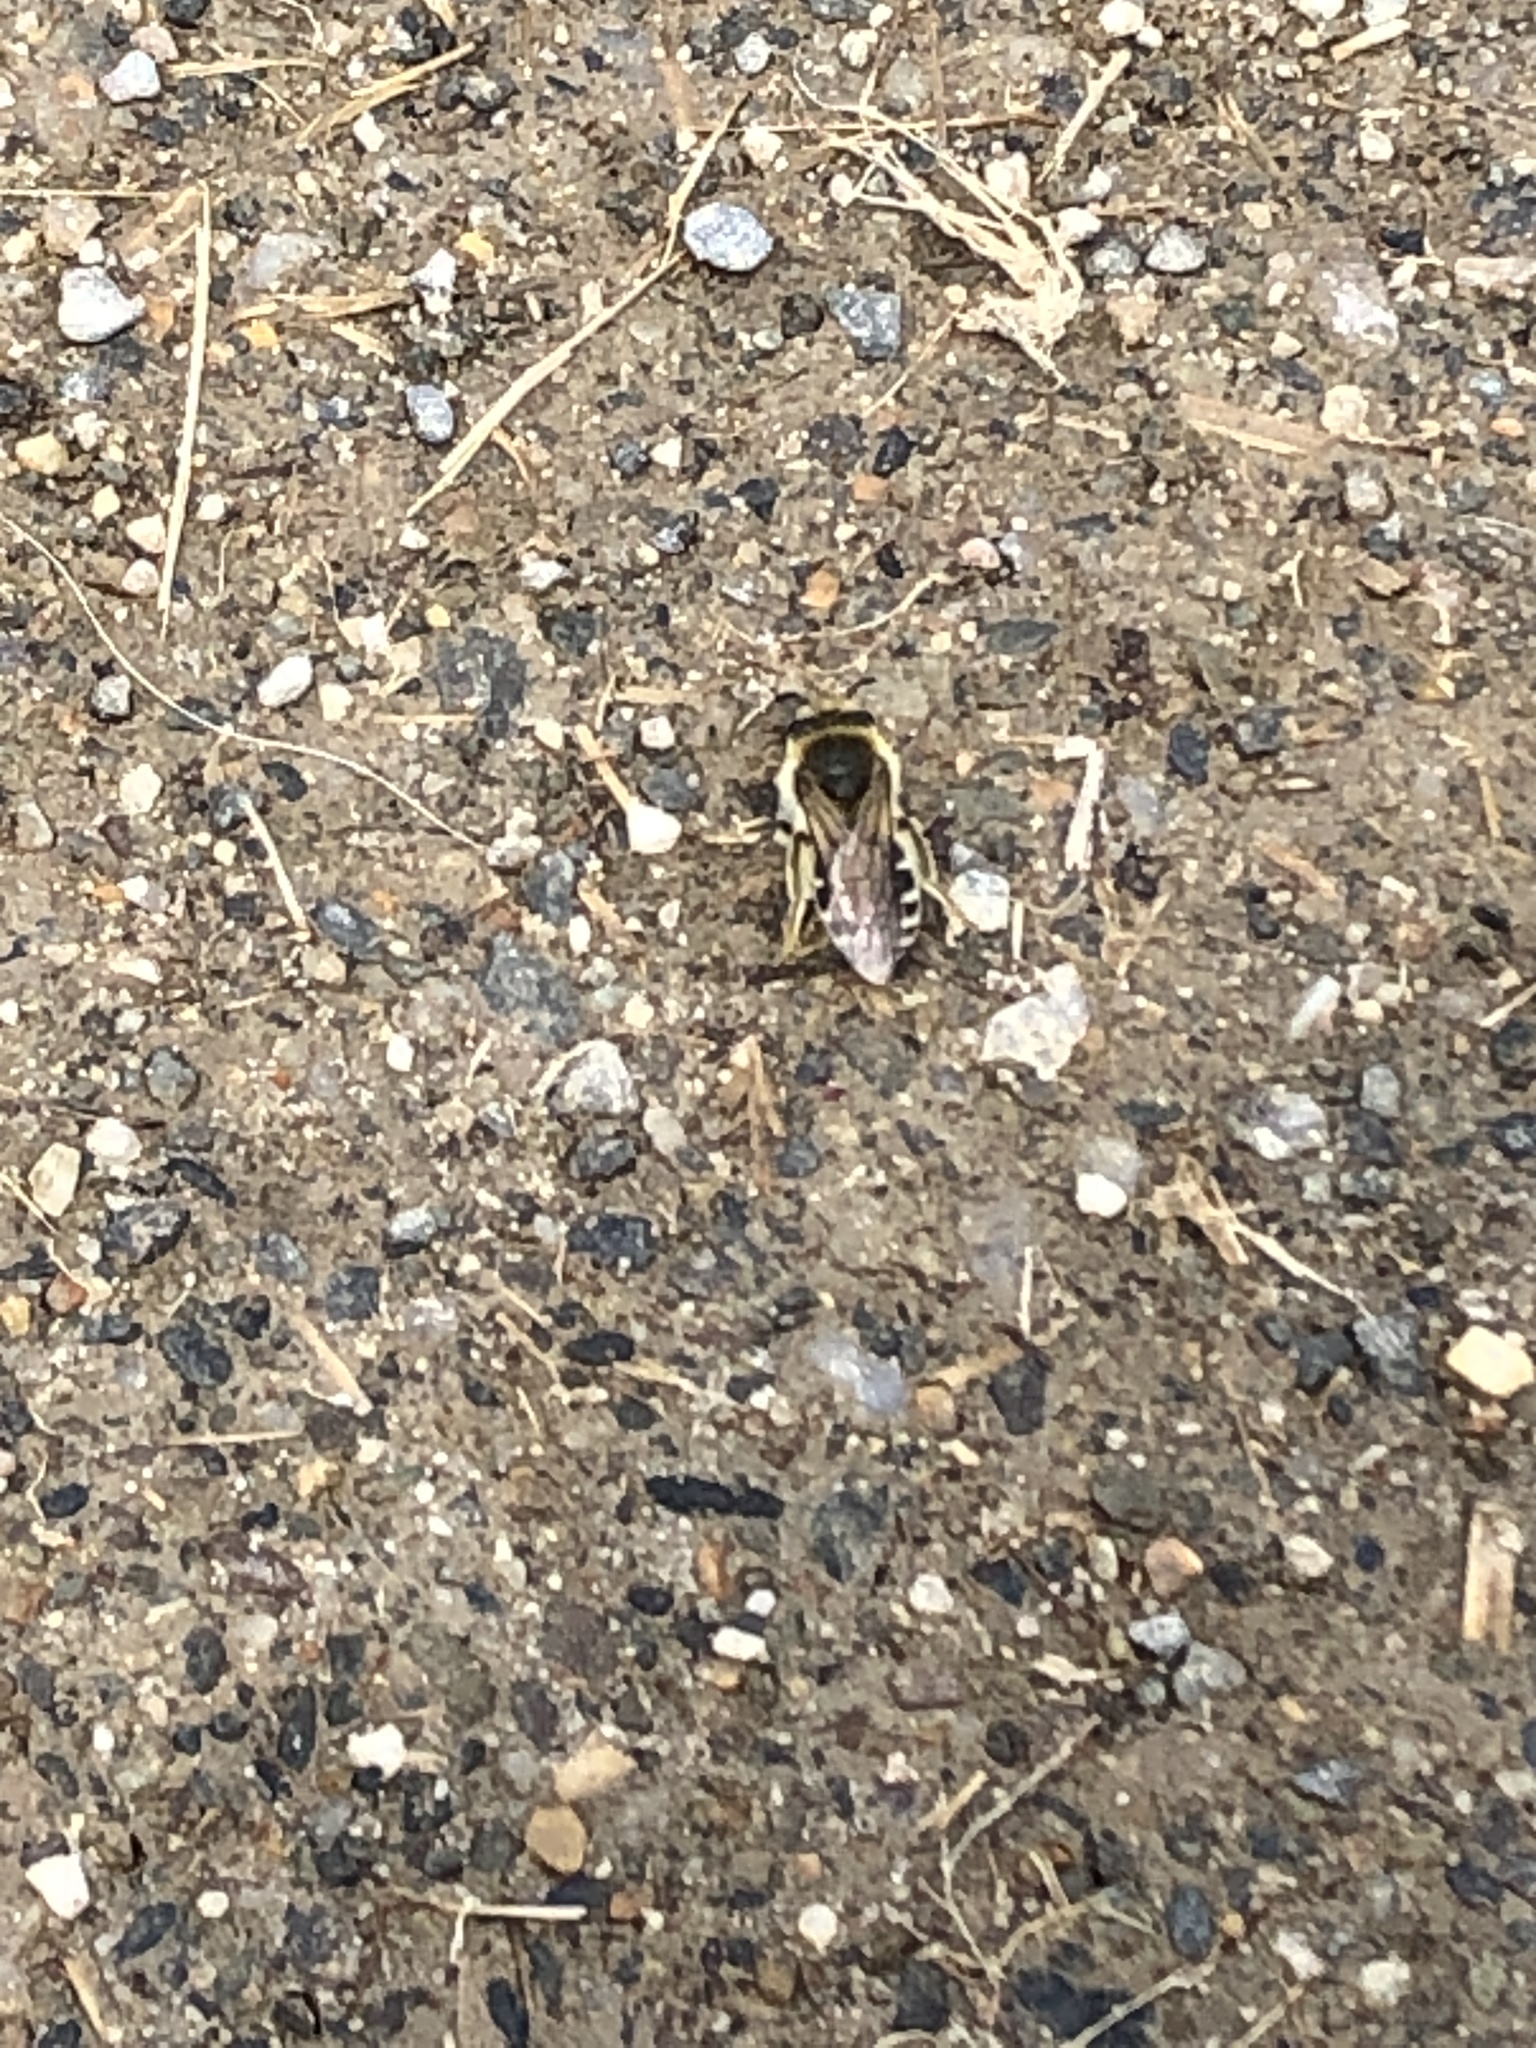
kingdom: Animalia
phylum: Arthropoda
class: Insecta
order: Hymenoptera
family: Colletidae
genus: Colletes
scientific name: Colletes inaequalis
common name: Unequal cellophane bee
